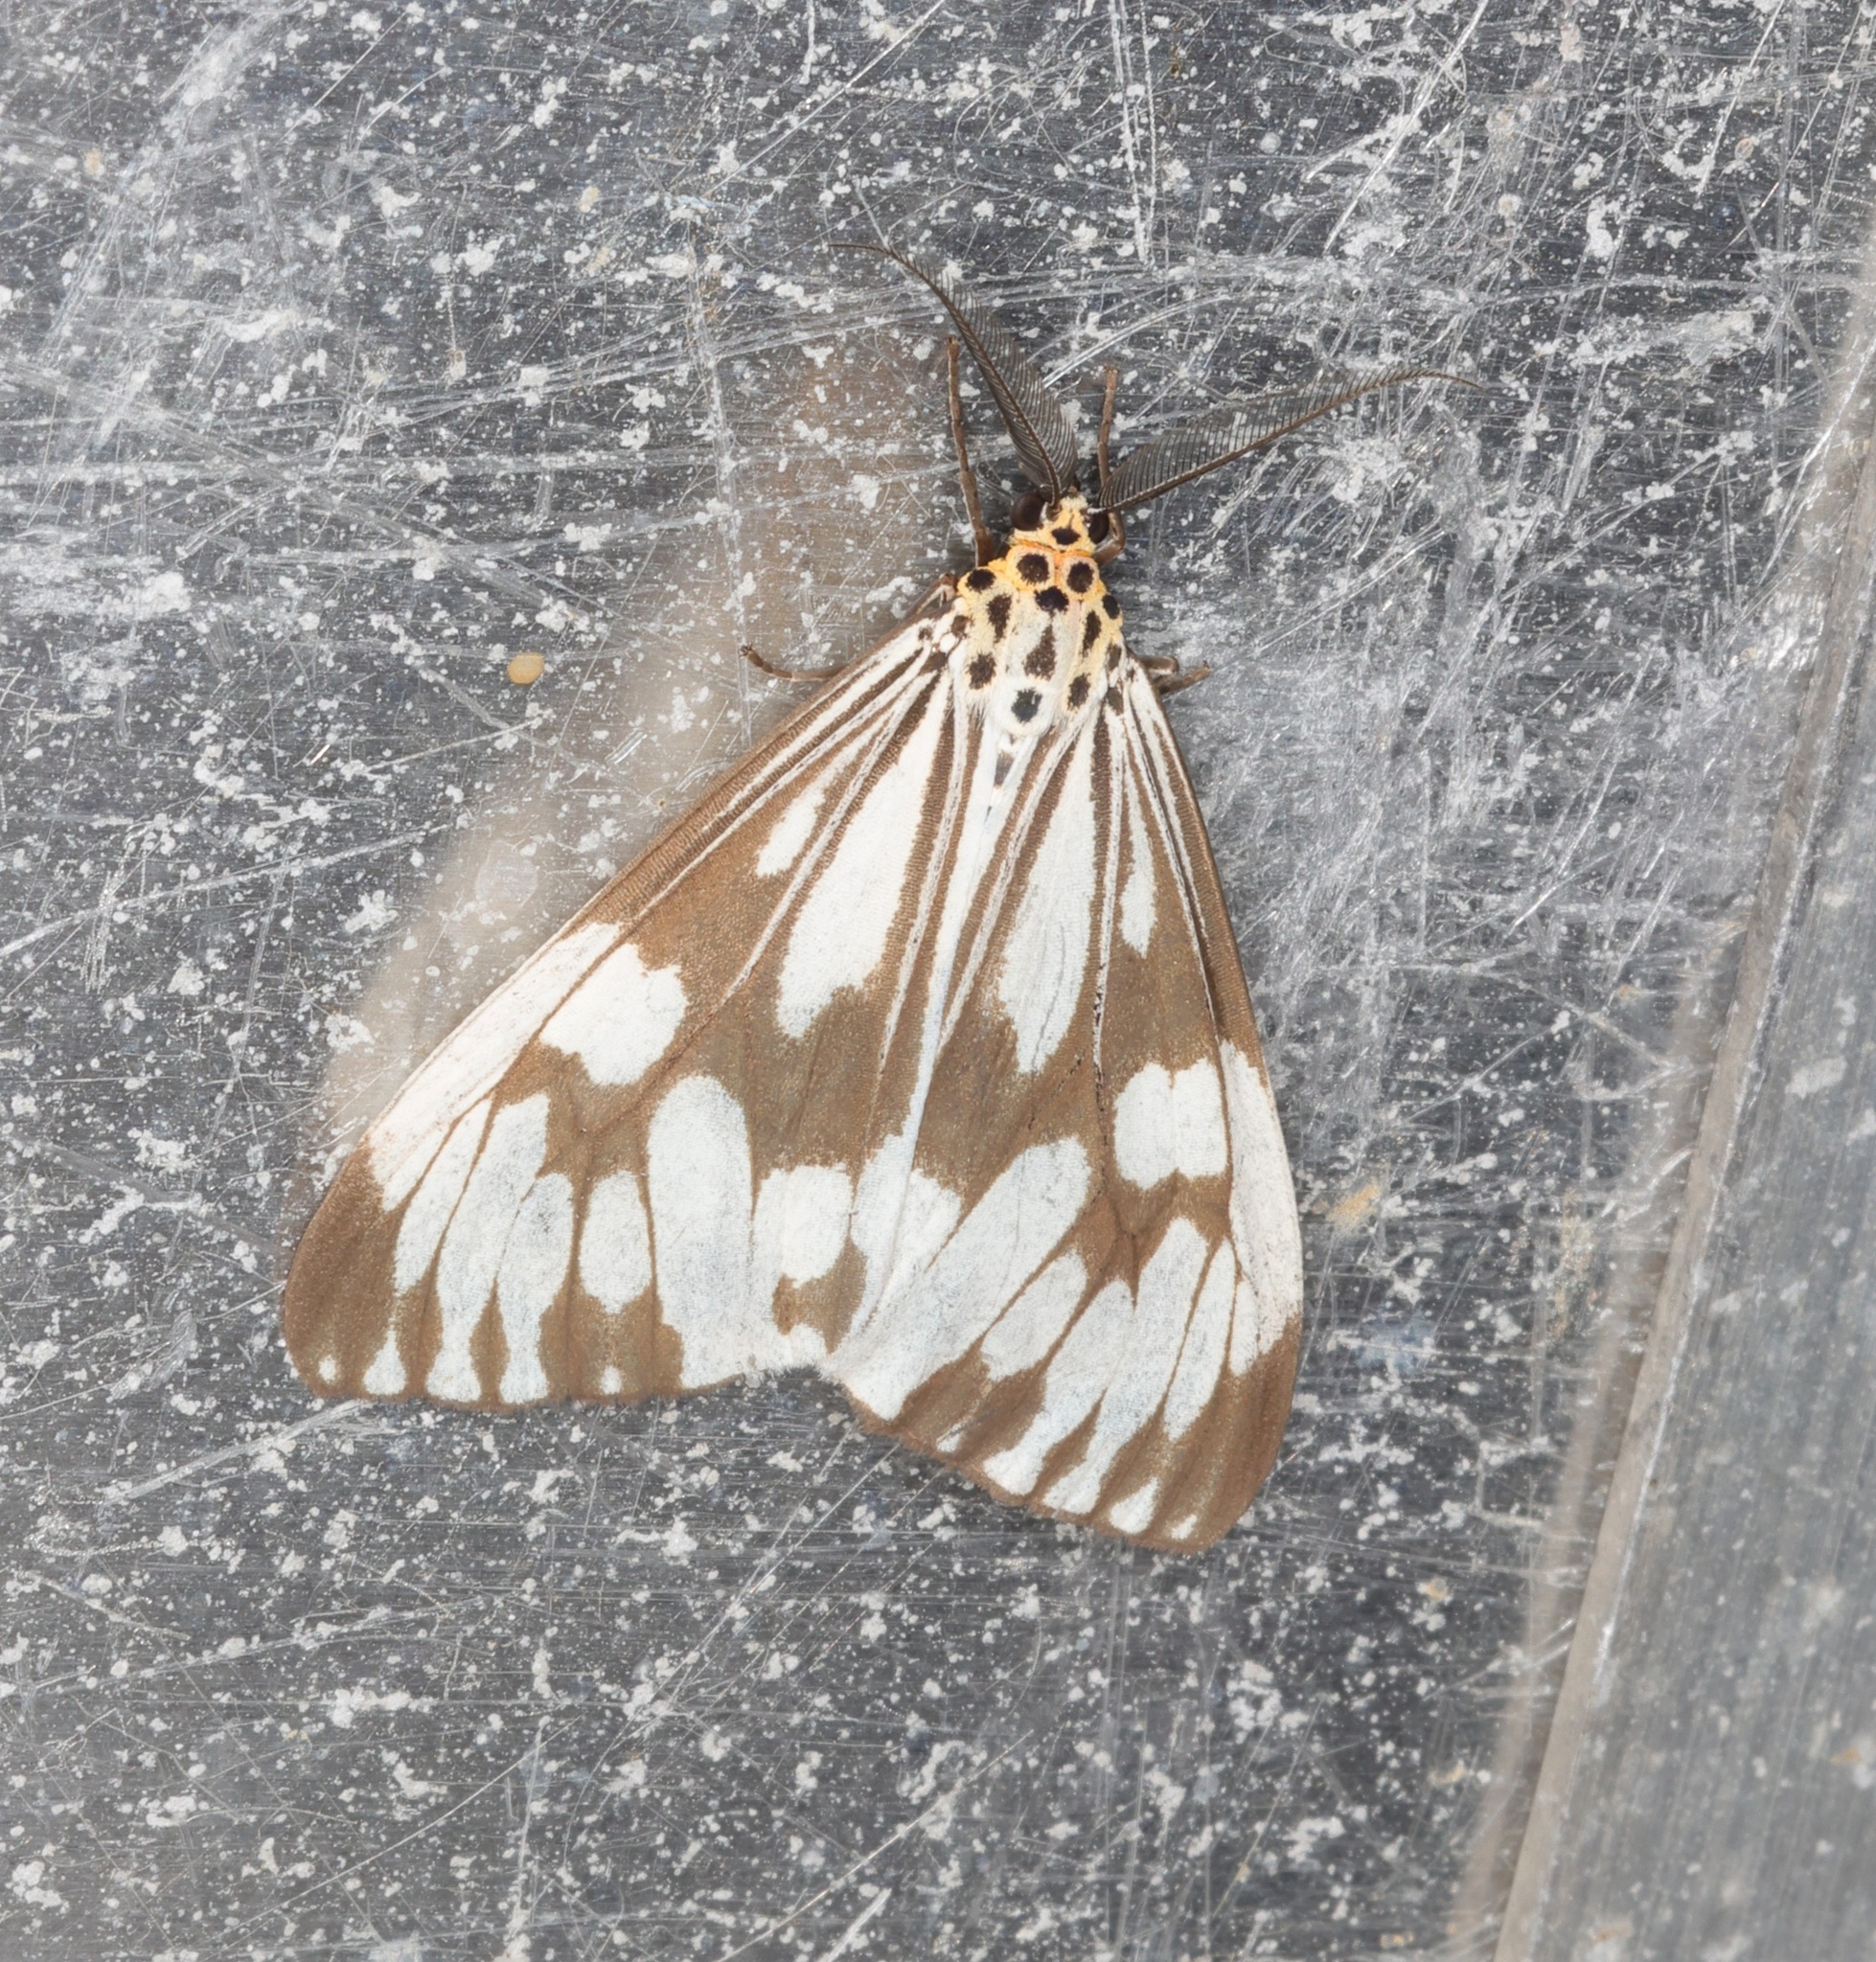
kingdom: Animalia
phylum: Arthropoda
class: Insecta
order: Lepidoptera
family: Erebidae
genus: Nyctemera
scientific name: Nyctemera adversata
